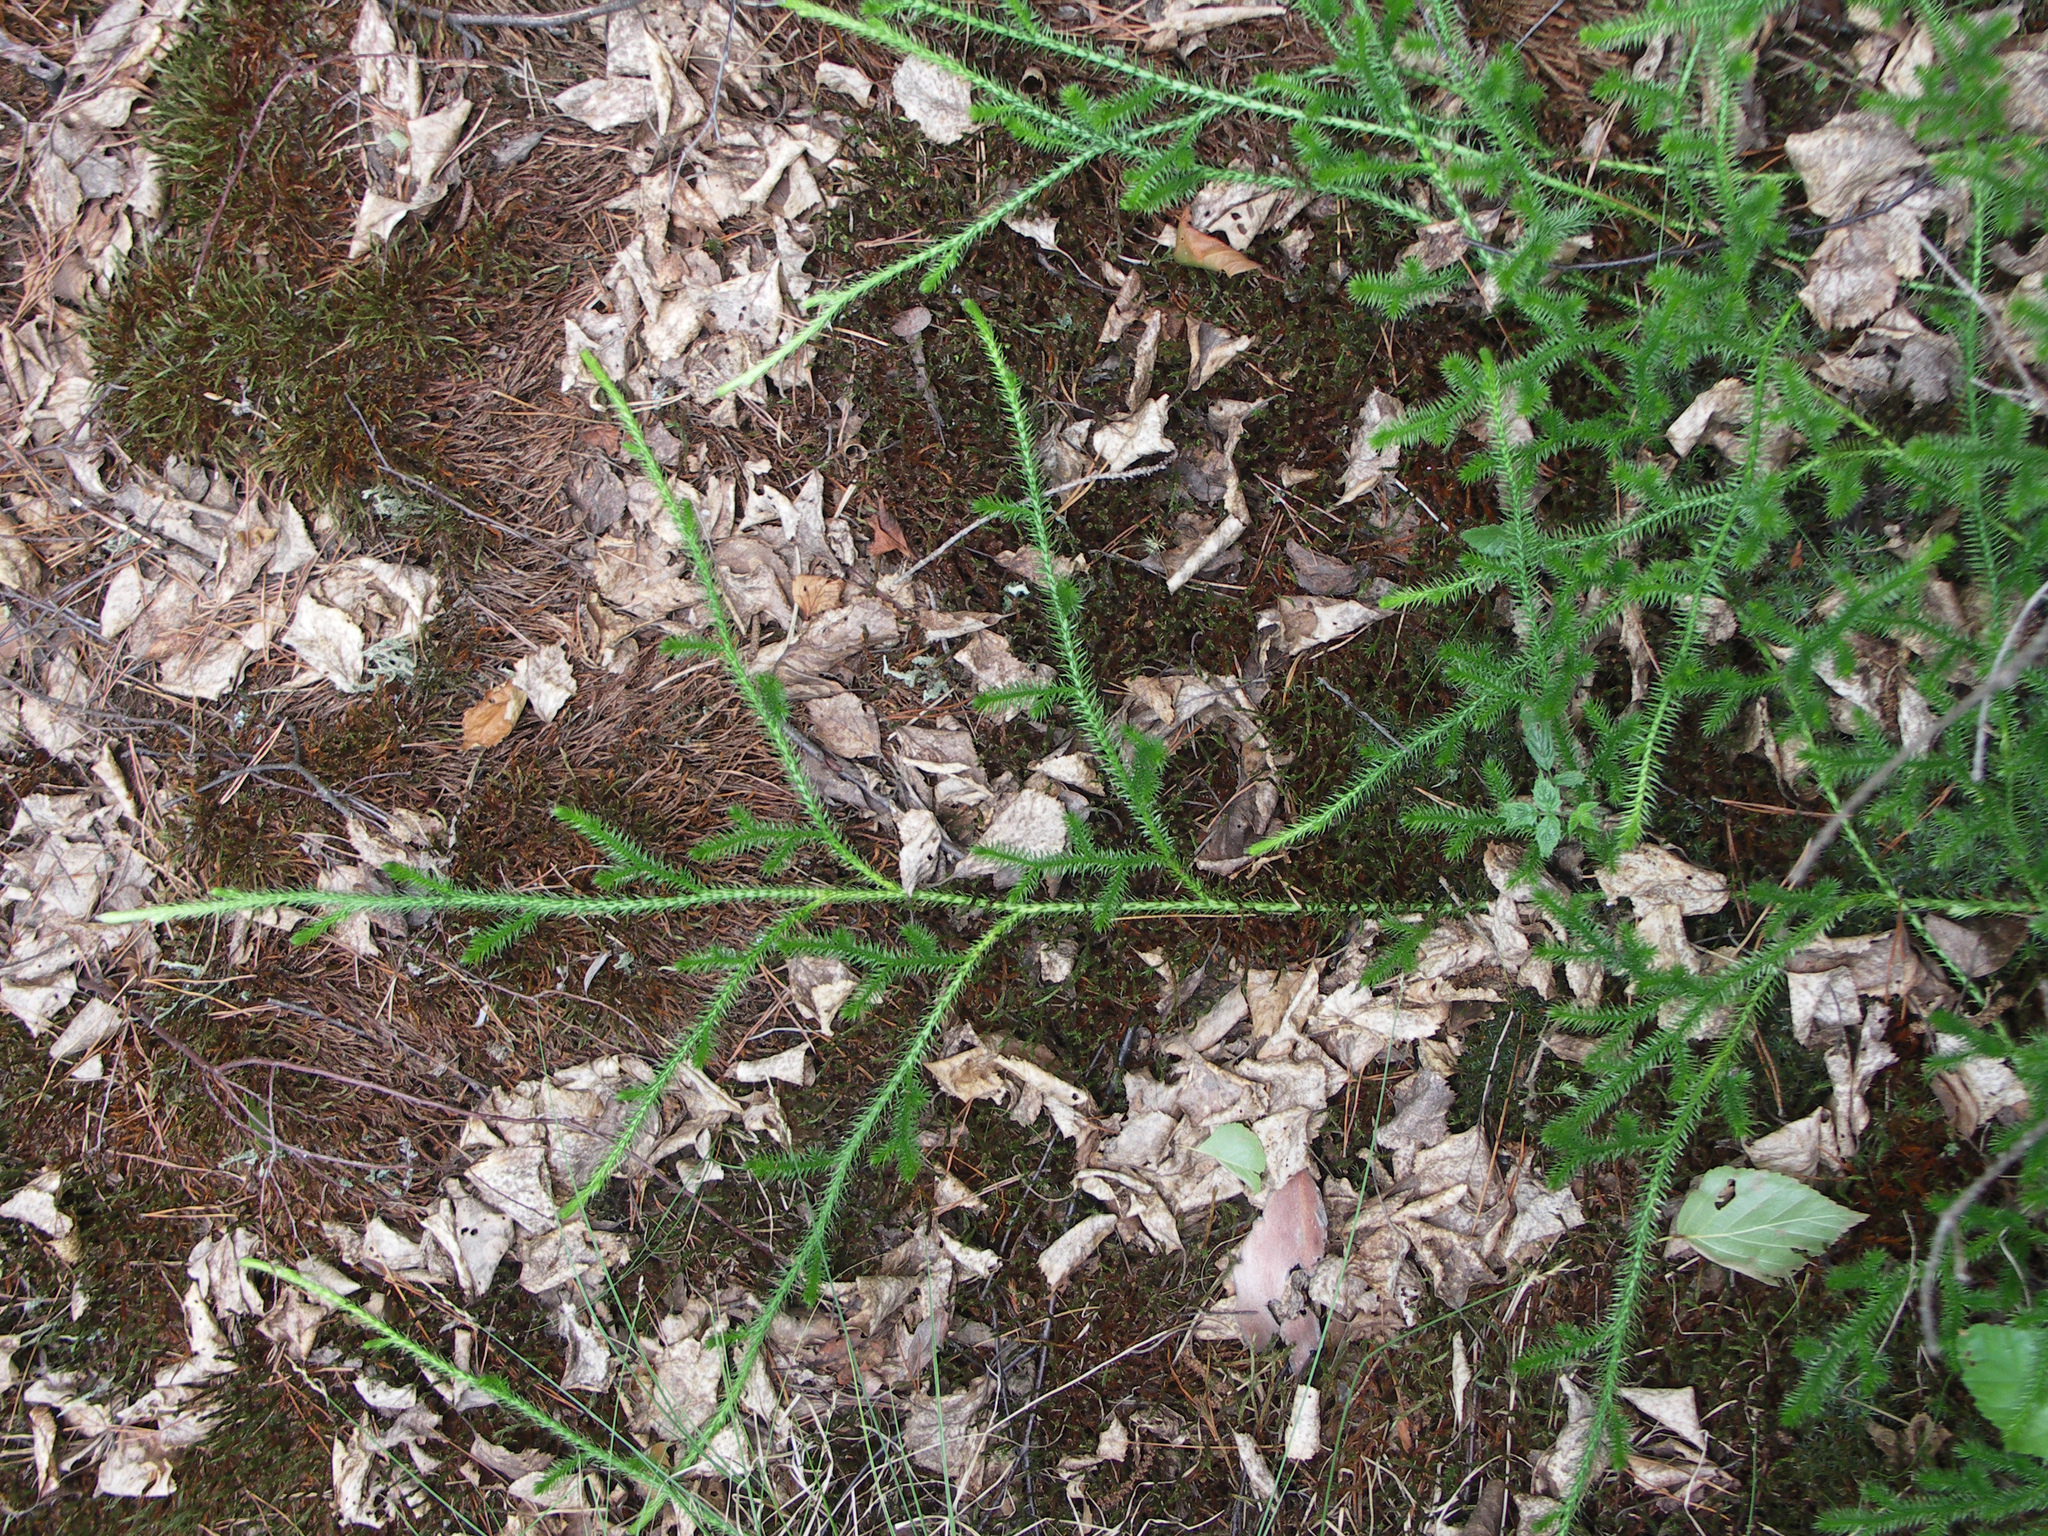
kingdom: Plantae
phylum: Tracheophyta
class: Lycopodiopsida
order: Lycopodiales
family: Lycopodiaceae
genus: Lycopodium
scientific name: Lycopodium clavatum
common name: Stag's-horn clubmoss
